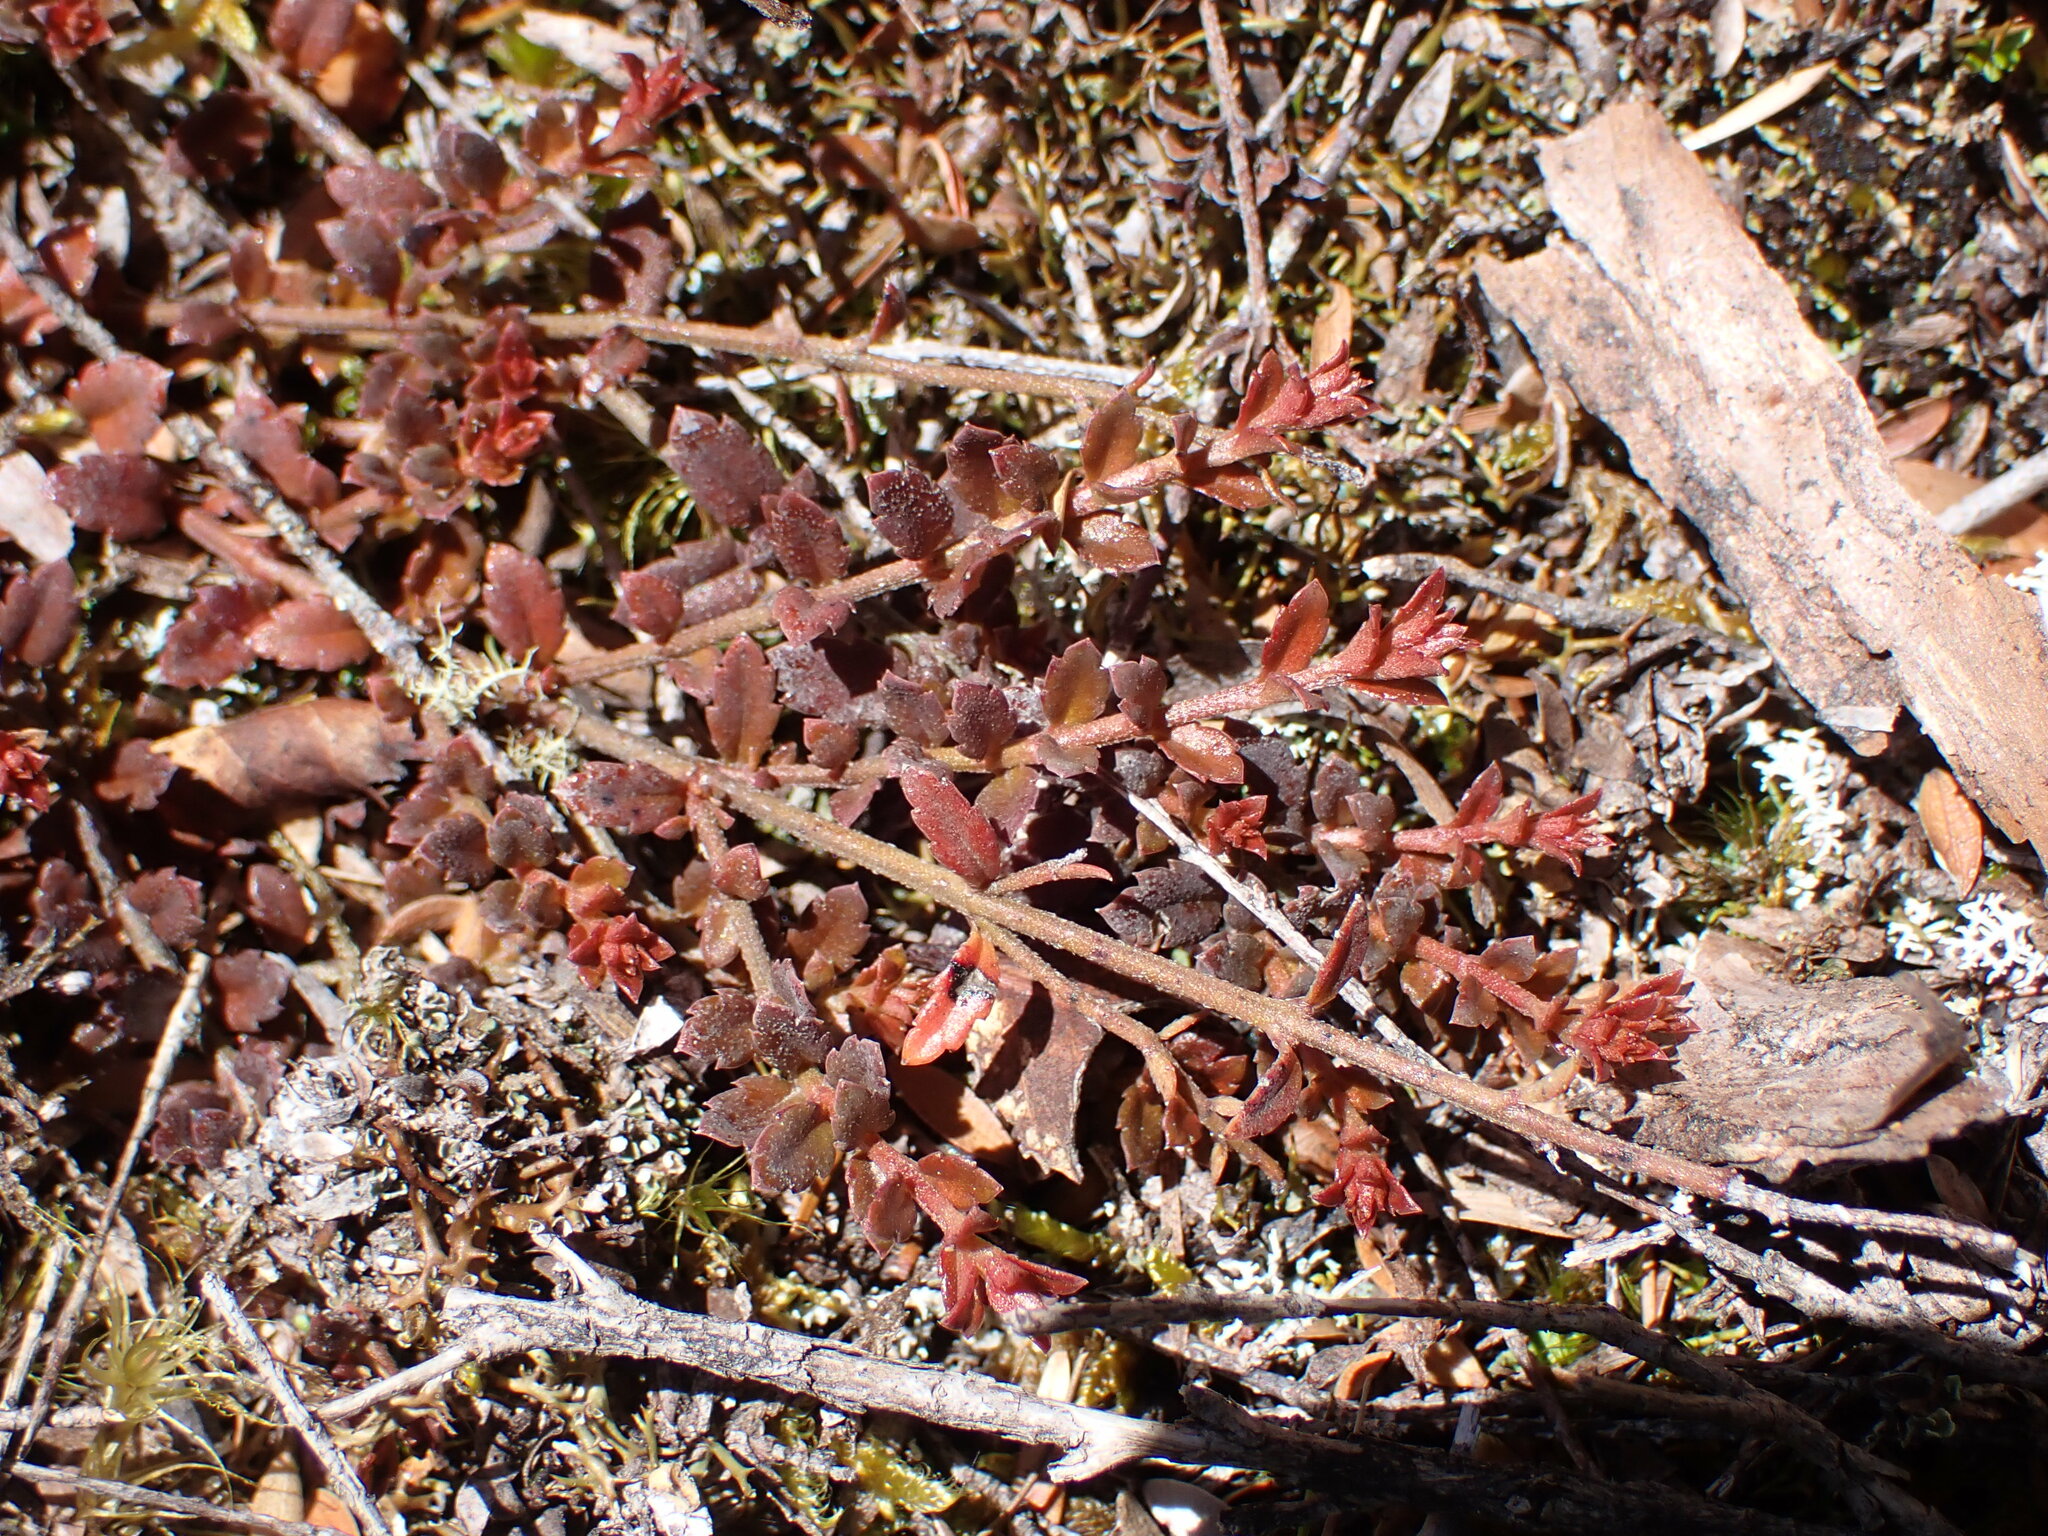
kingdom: Plantae
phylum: Tracheophyta
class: Magnoliopsida
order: Saxifragales
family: Haloragaceae
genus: Gonocarpus
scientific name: Gonocarpus incanus
